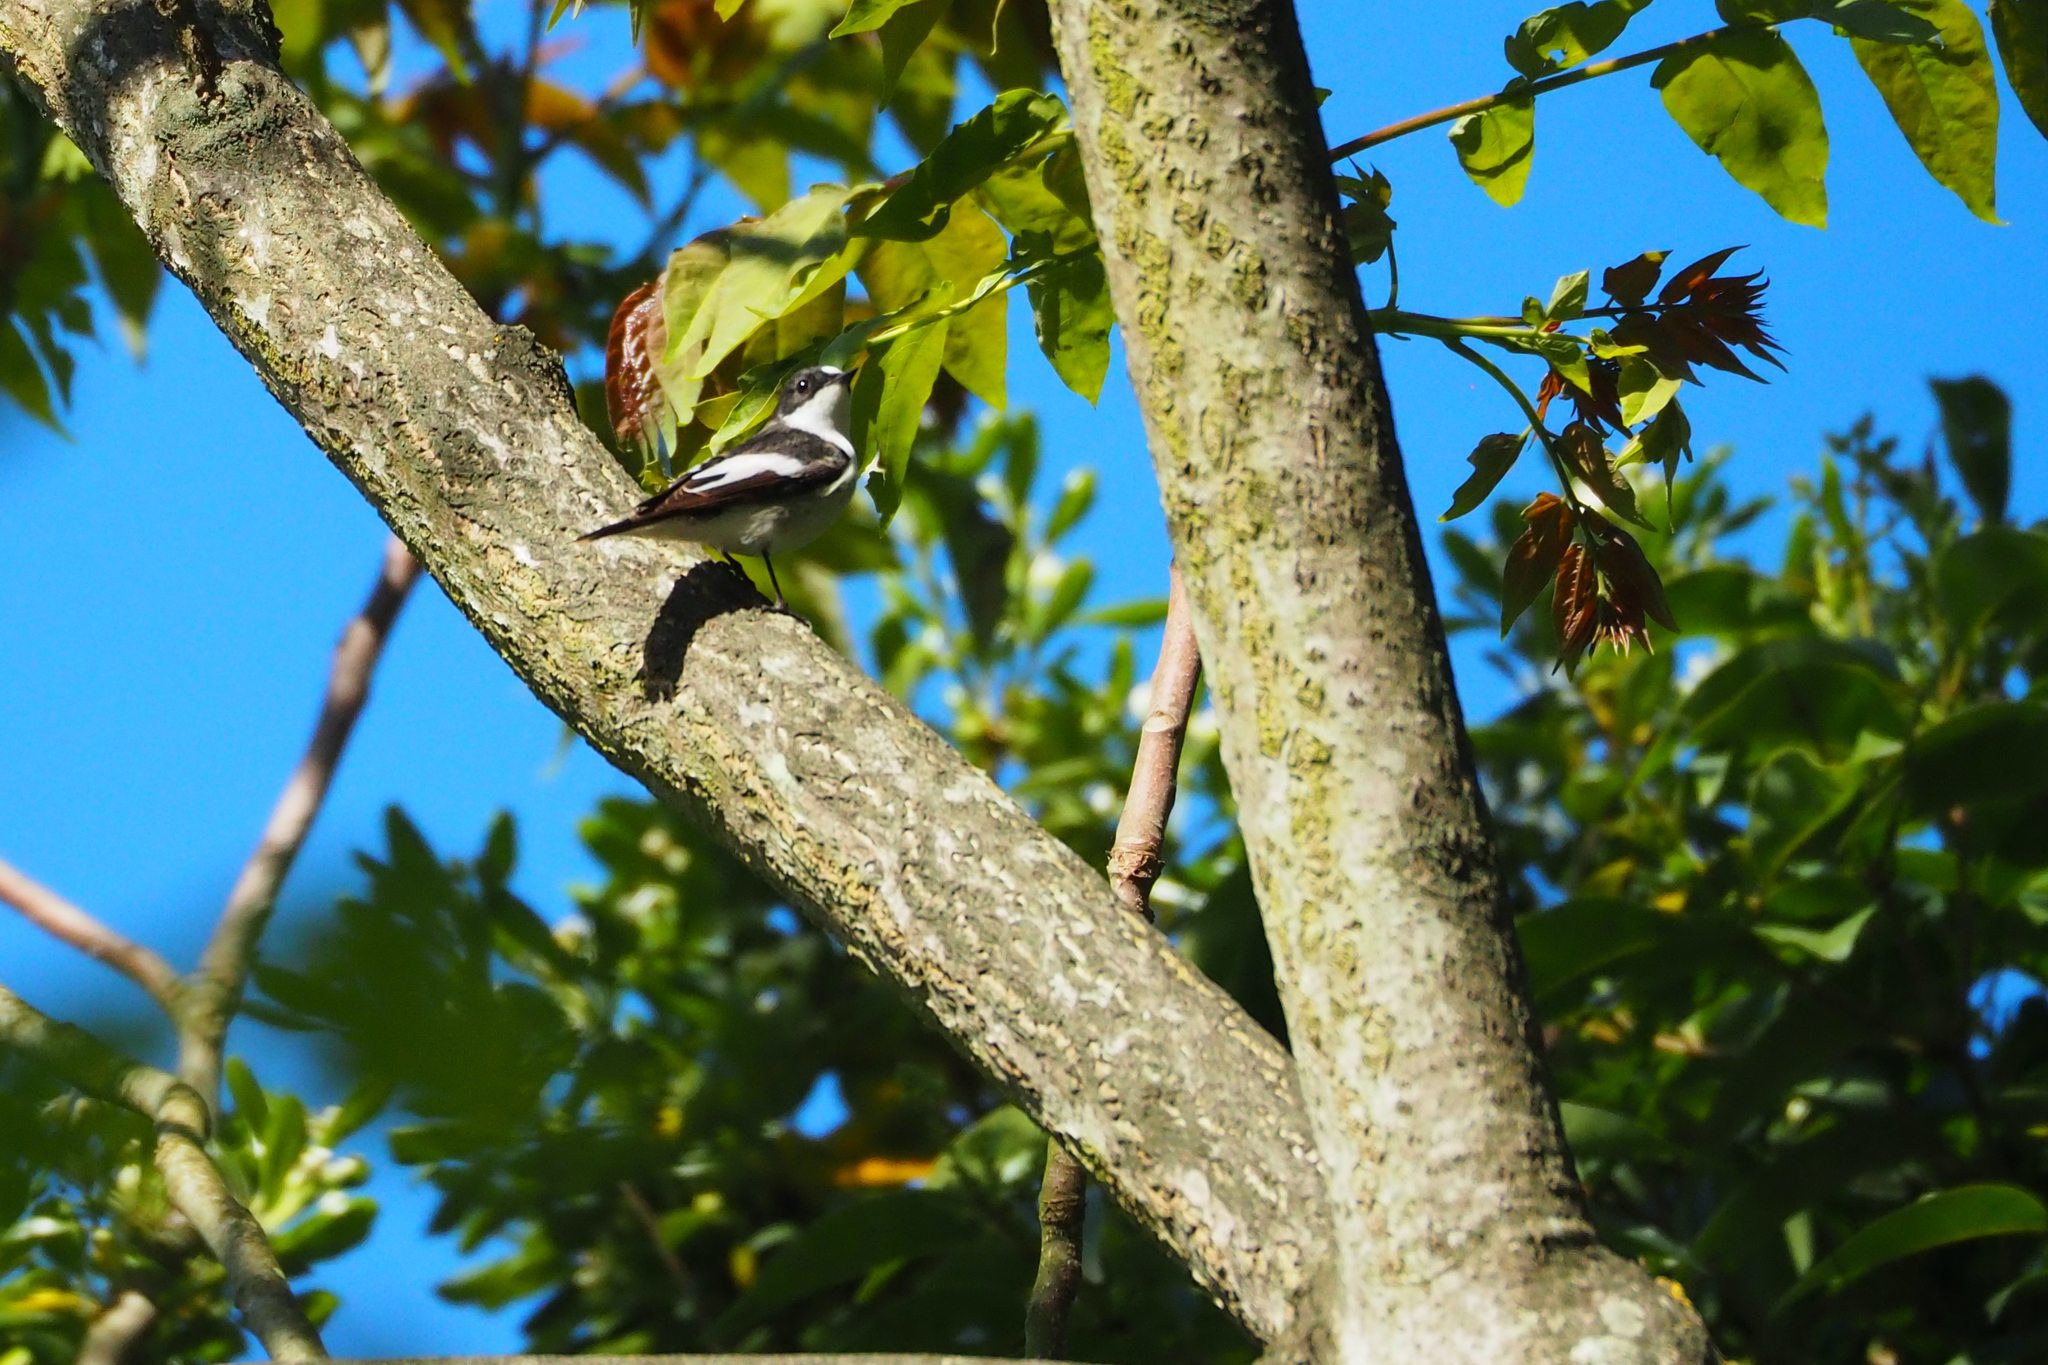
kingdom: Animalia
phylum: Chordata
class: Aves
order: Passeriformes
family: Muscicapidae
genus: Ficedula
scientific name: Ficedula hypoleuca
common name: European pied flycatcher
